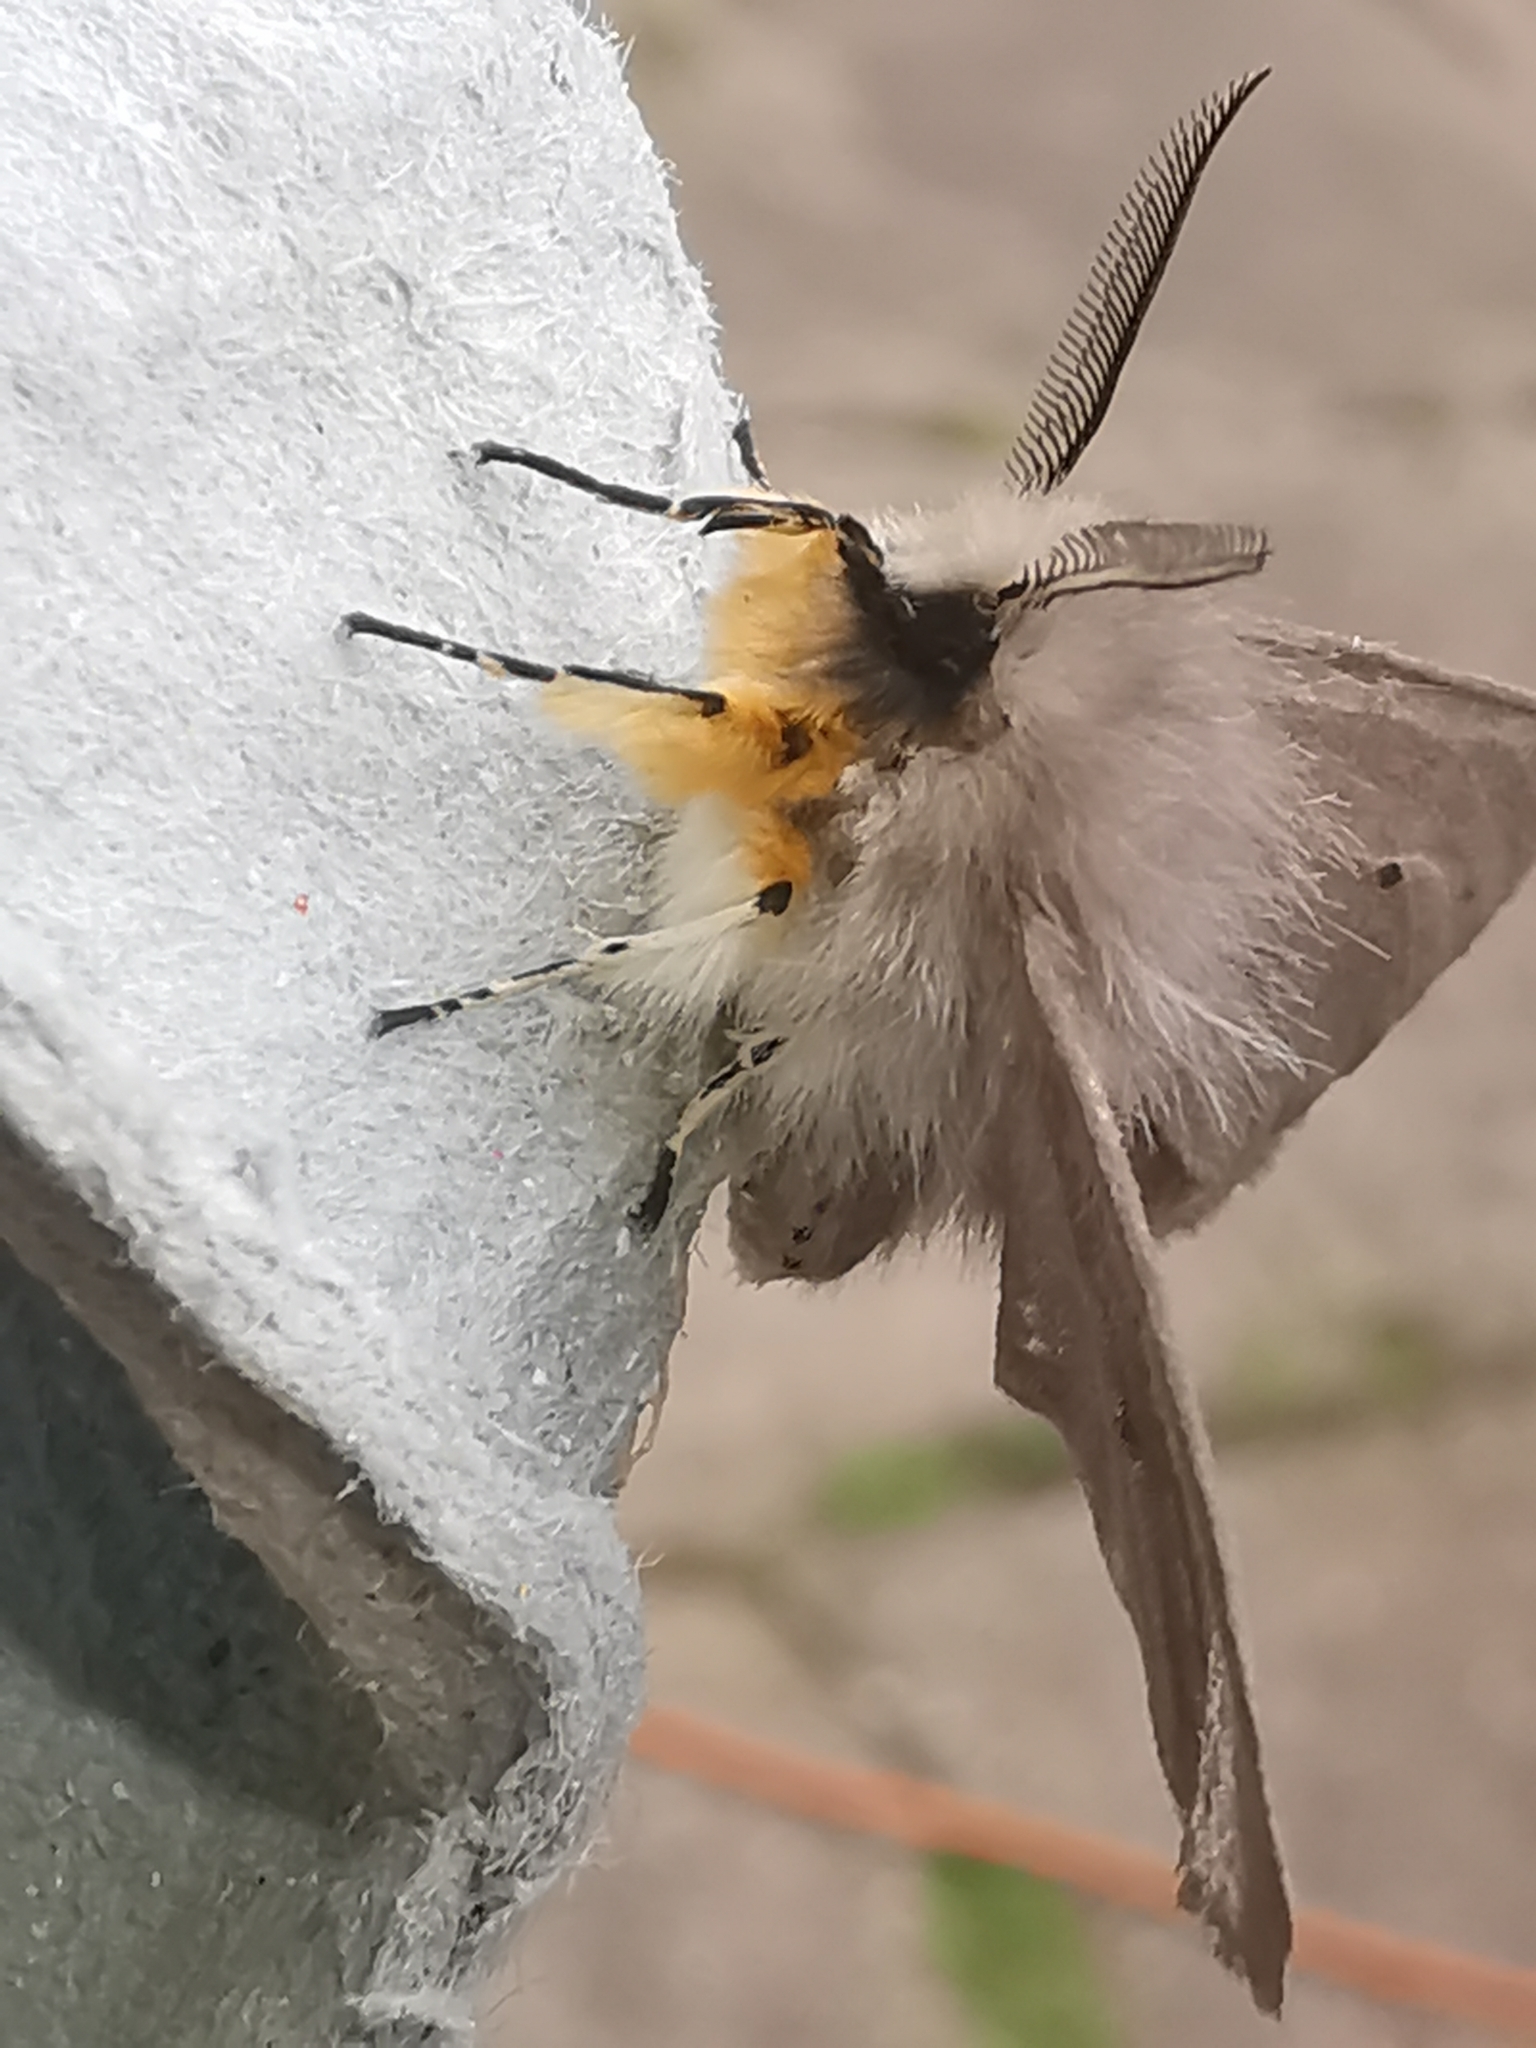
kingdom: Animalia
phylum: Arthropoda
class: Insecta
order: Lepidoptera
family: Erebidae
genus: Diaphora
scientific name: Diaphora mendica
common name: Muslin moth
